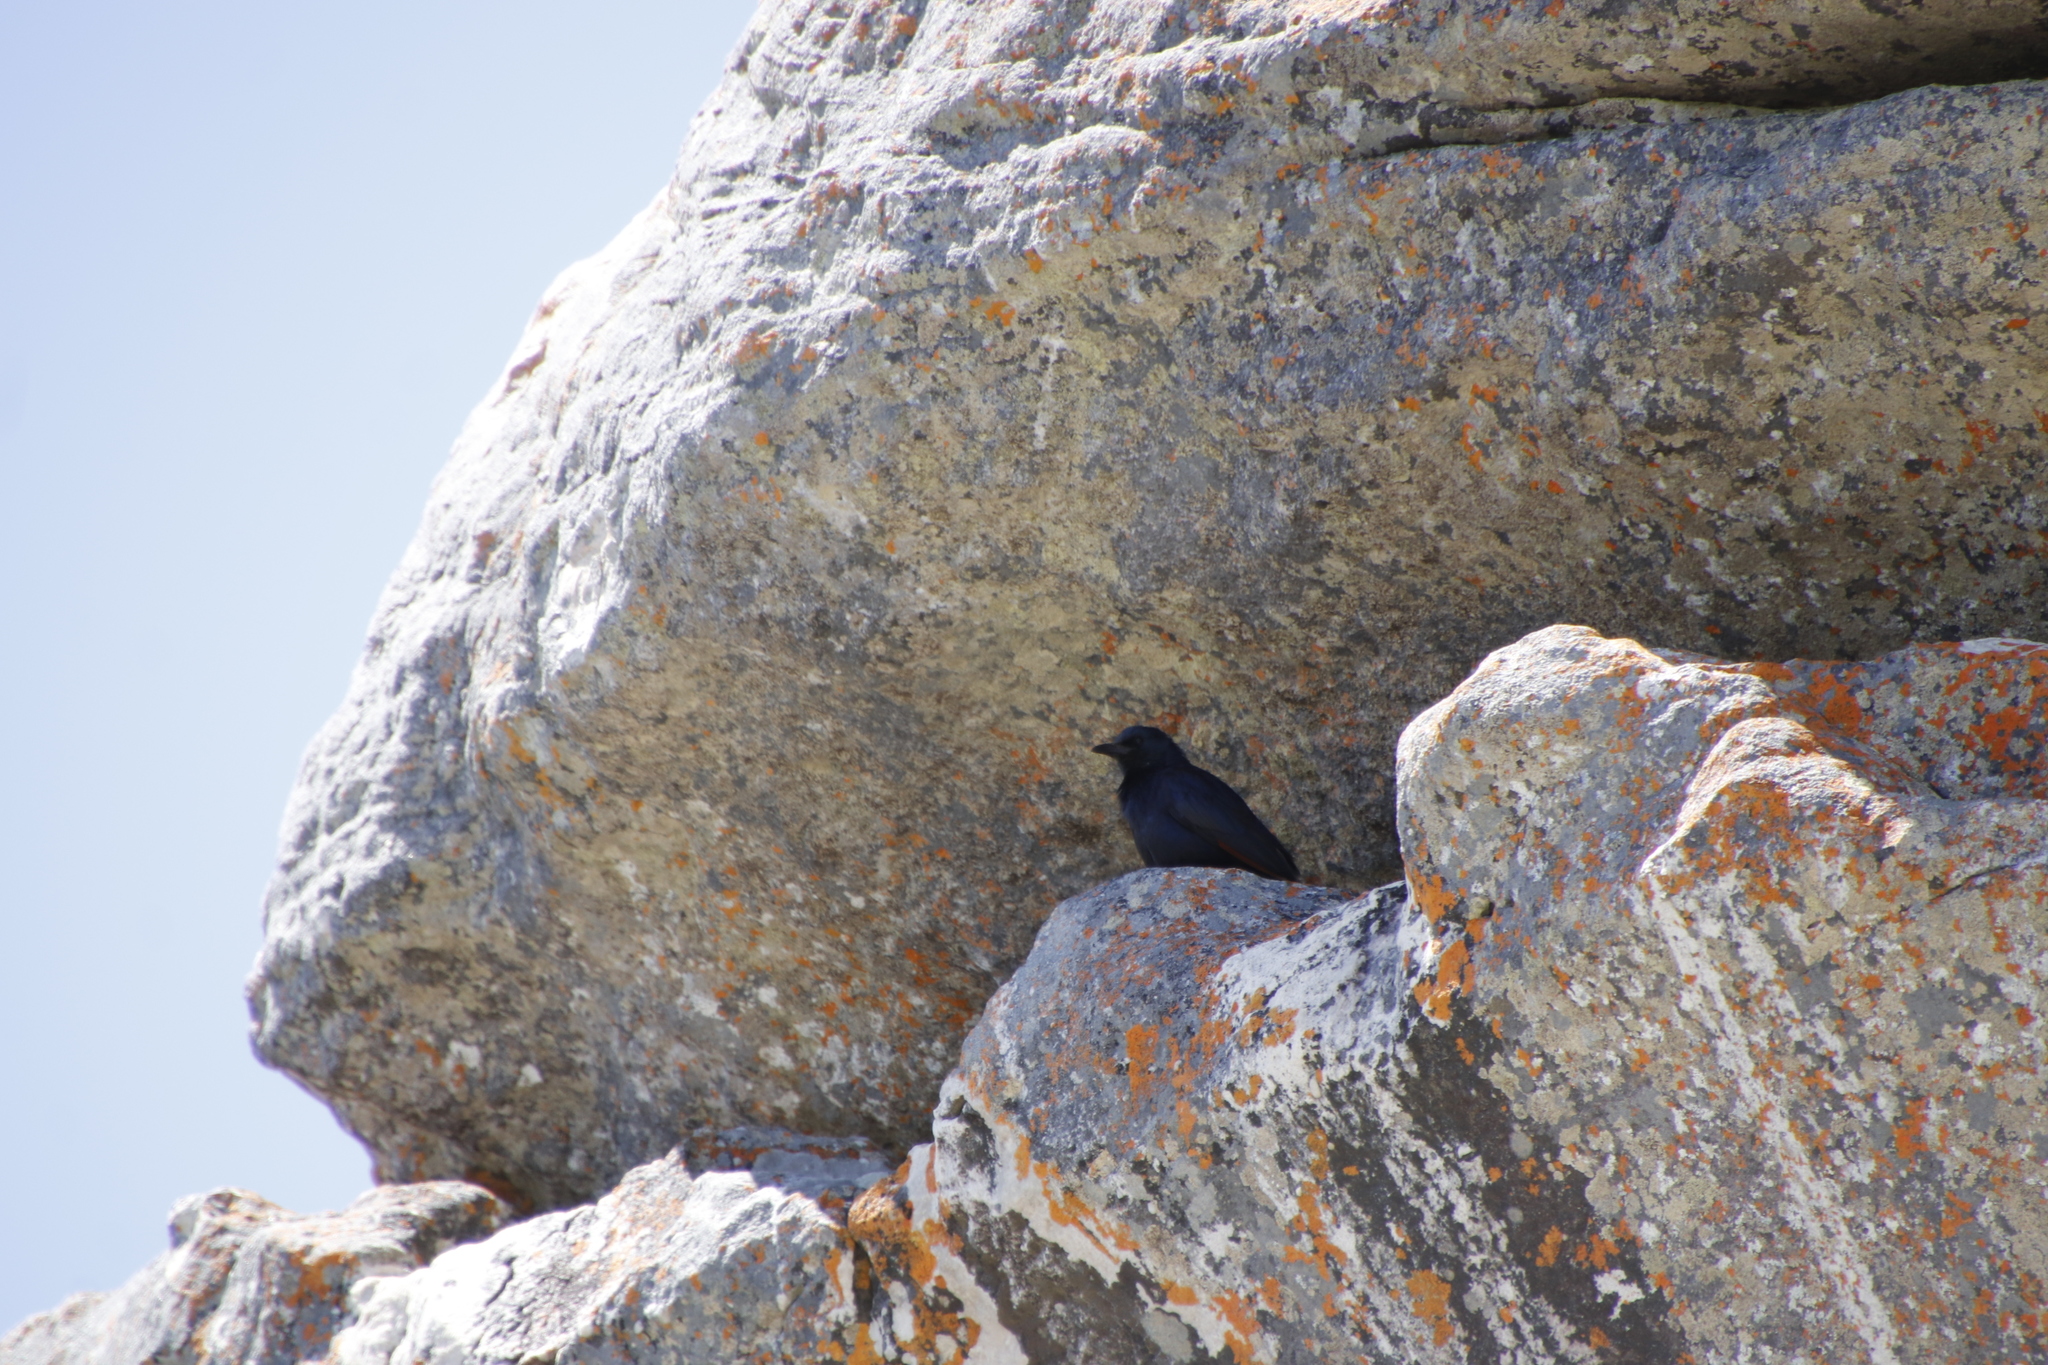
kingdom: Animalia
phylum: Chordata
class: Aves
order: Passeriformes
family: Sturnidae
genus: Onychognathus
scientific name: Onychognathus morio
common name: Red-winged starling
